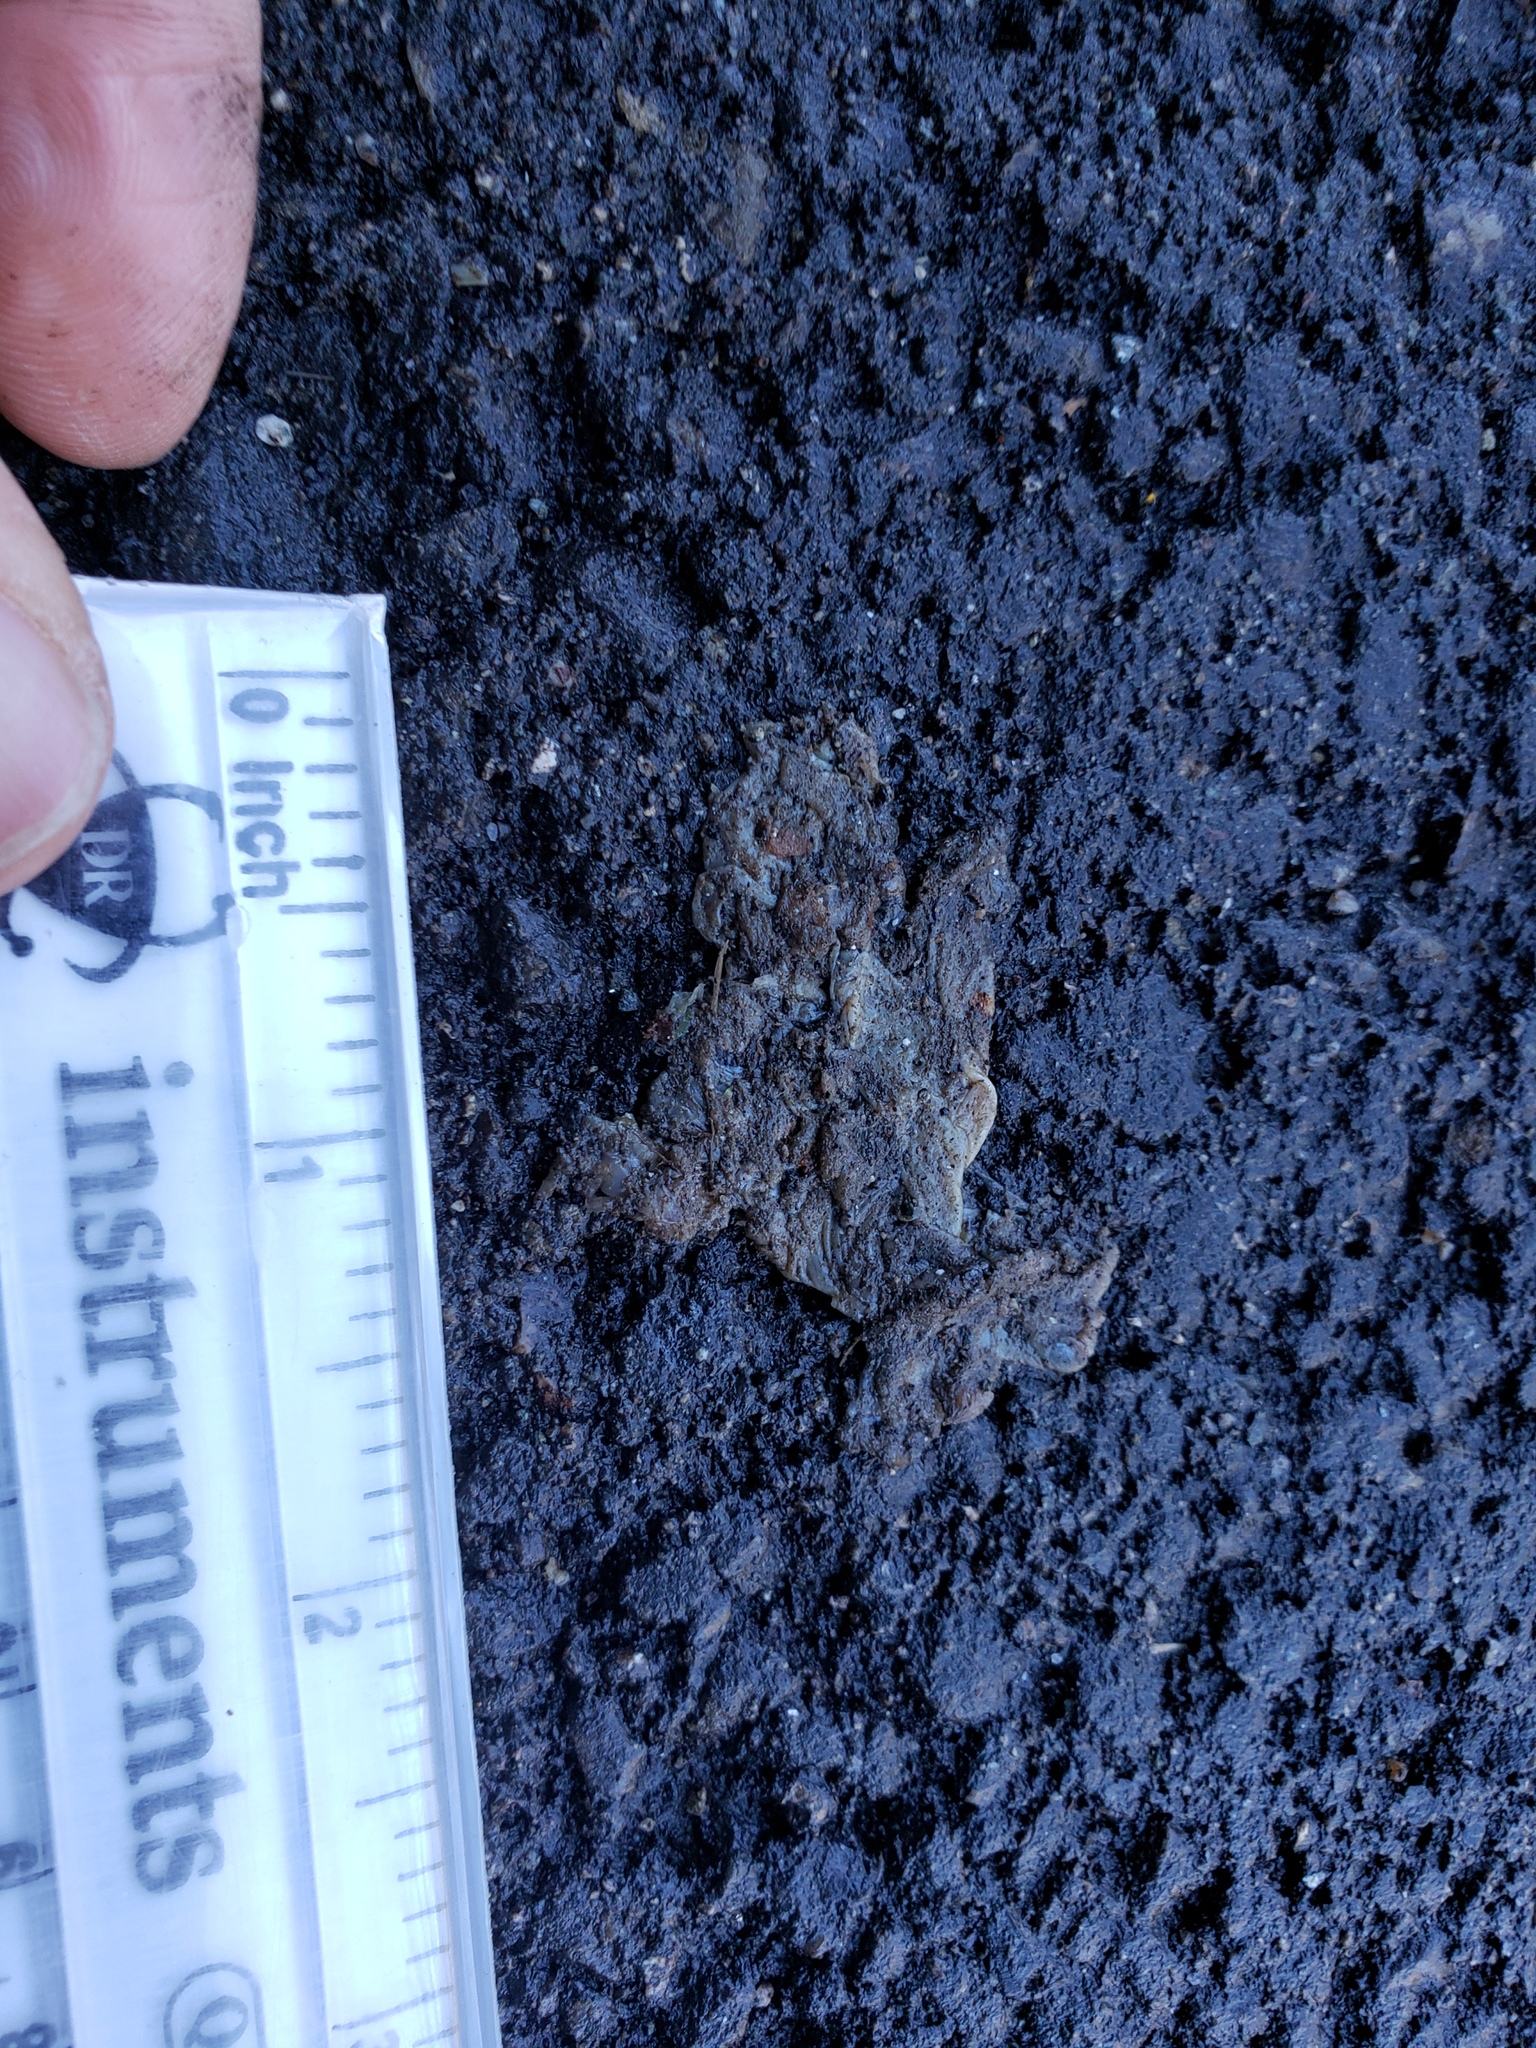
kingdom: Animalia
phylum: Chordata
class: Amphibia
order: Caudata
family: Salamandridae
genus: Taricha
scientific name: Taricha
